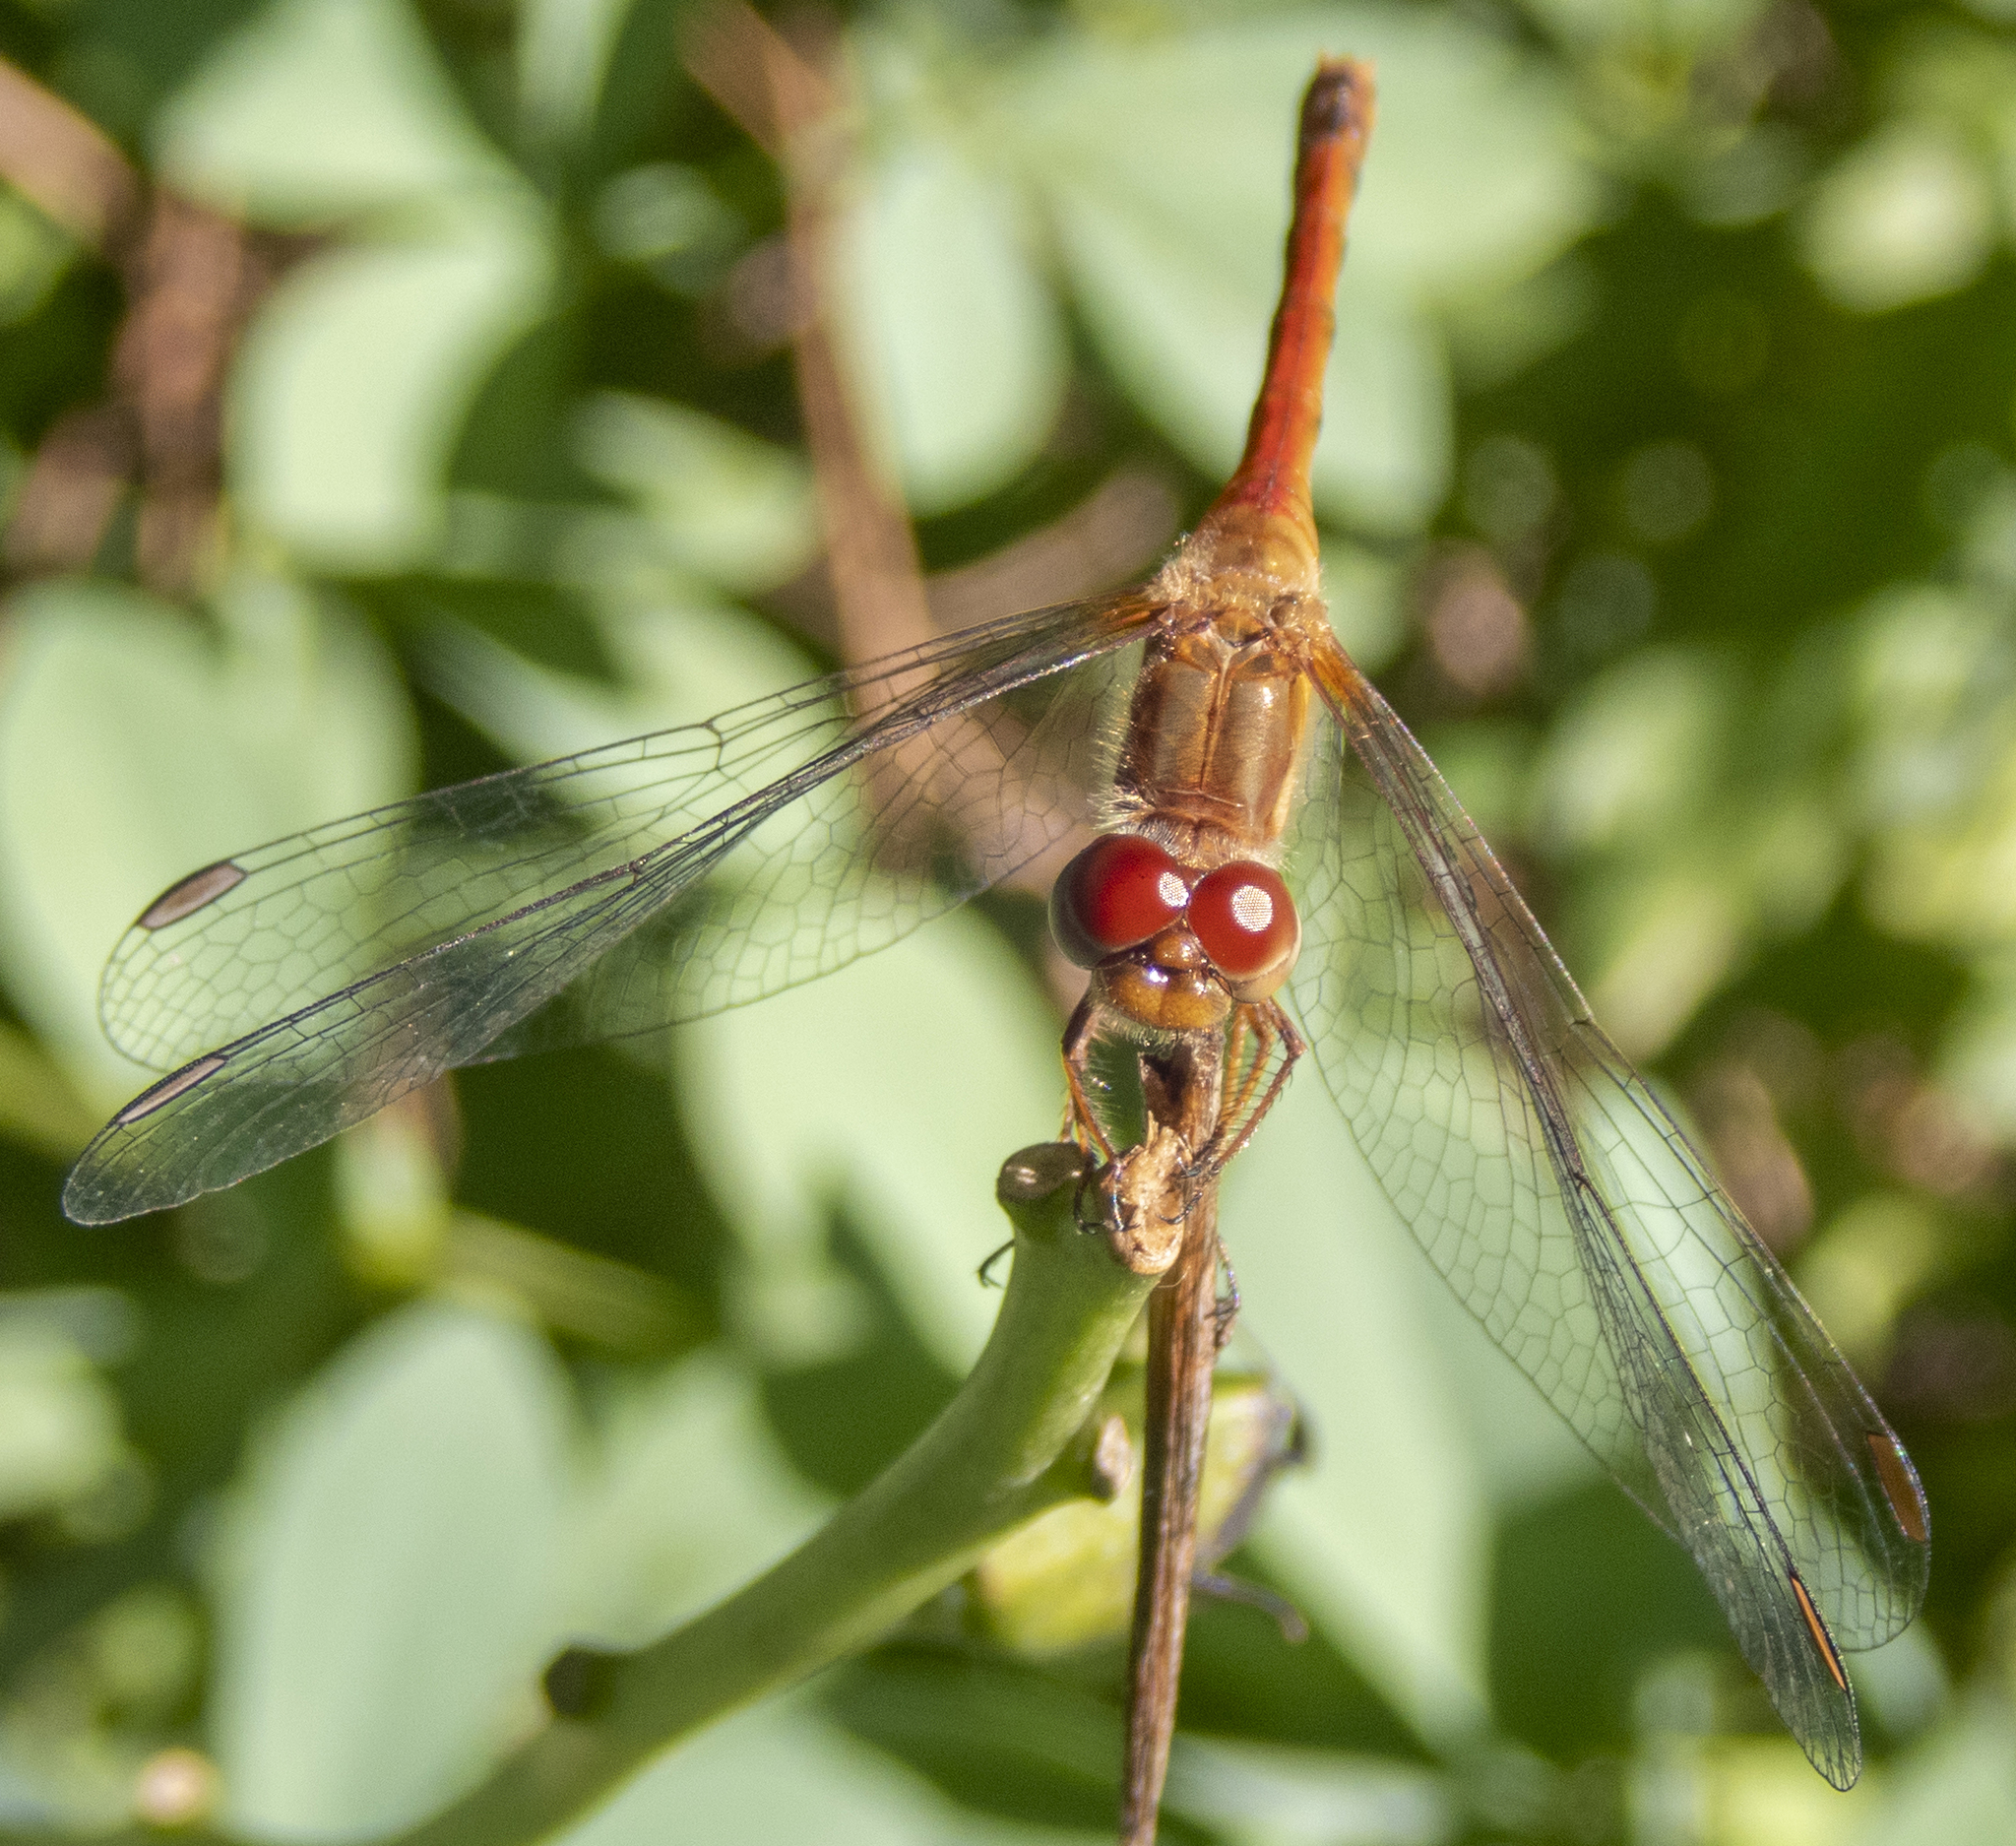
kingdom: Animalia
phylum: Arthropoda
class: Insecta
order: Odonata
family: Libellulidae
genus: Sympetrum
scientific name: Sympetrum vicinum
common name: Autumn meadowhawk
